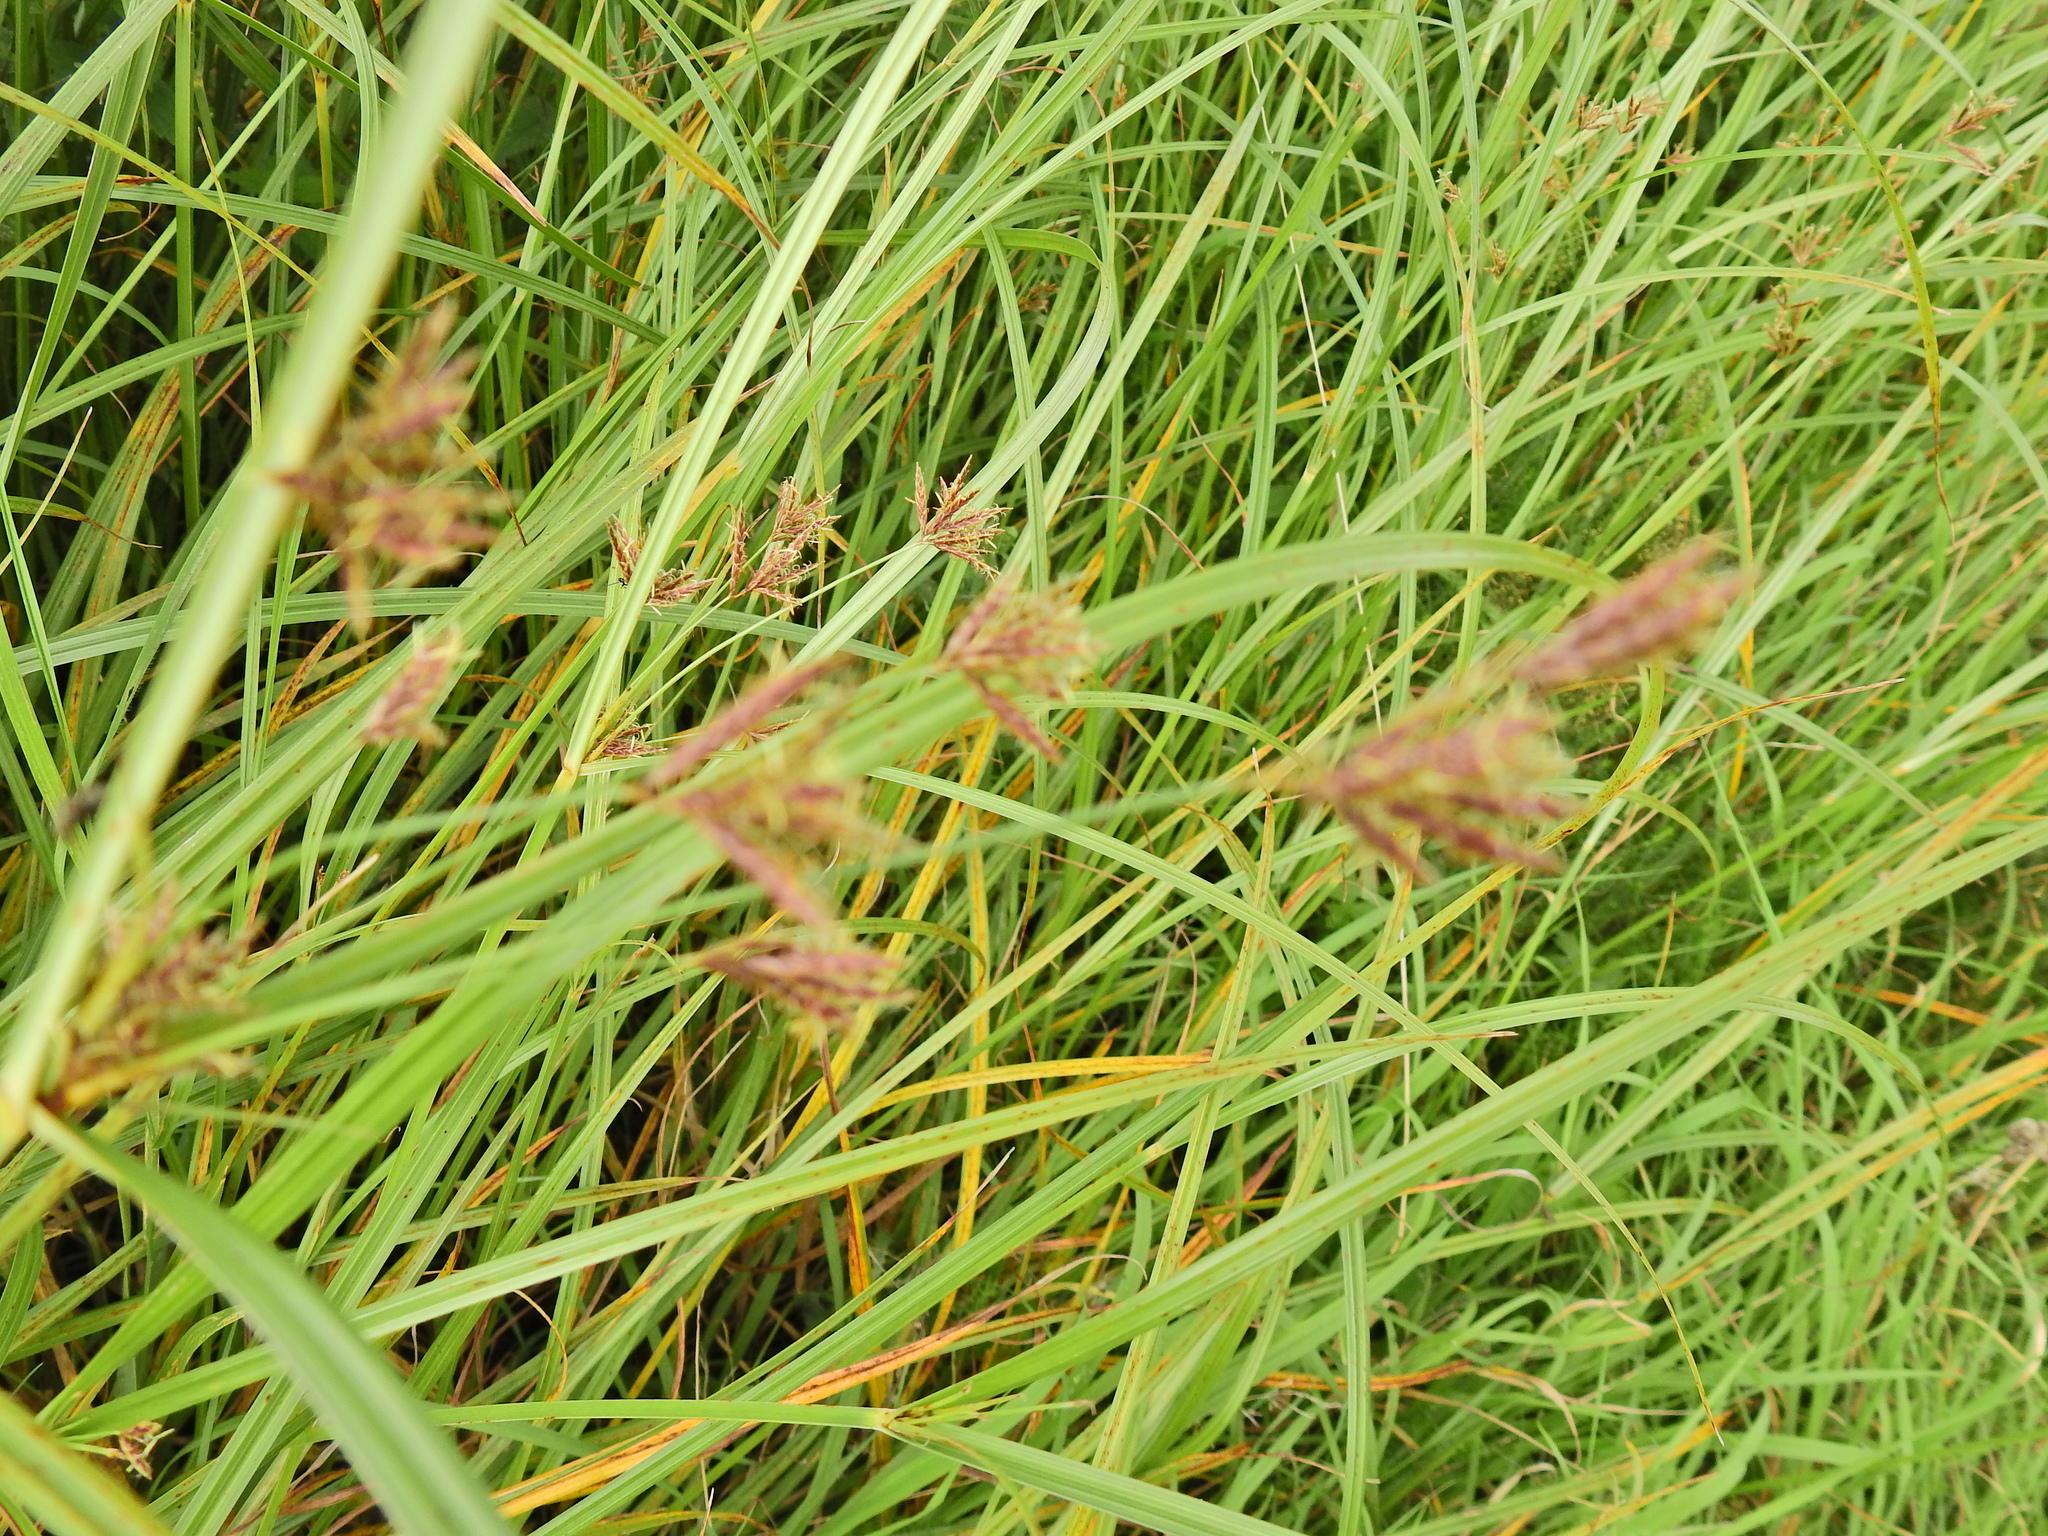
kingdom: Plantae
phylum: Tracheophyta
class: Liliopsida
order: Poales
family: Cyperaceae
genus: Cyperus
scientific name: Cyperus longus
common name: Galingale
